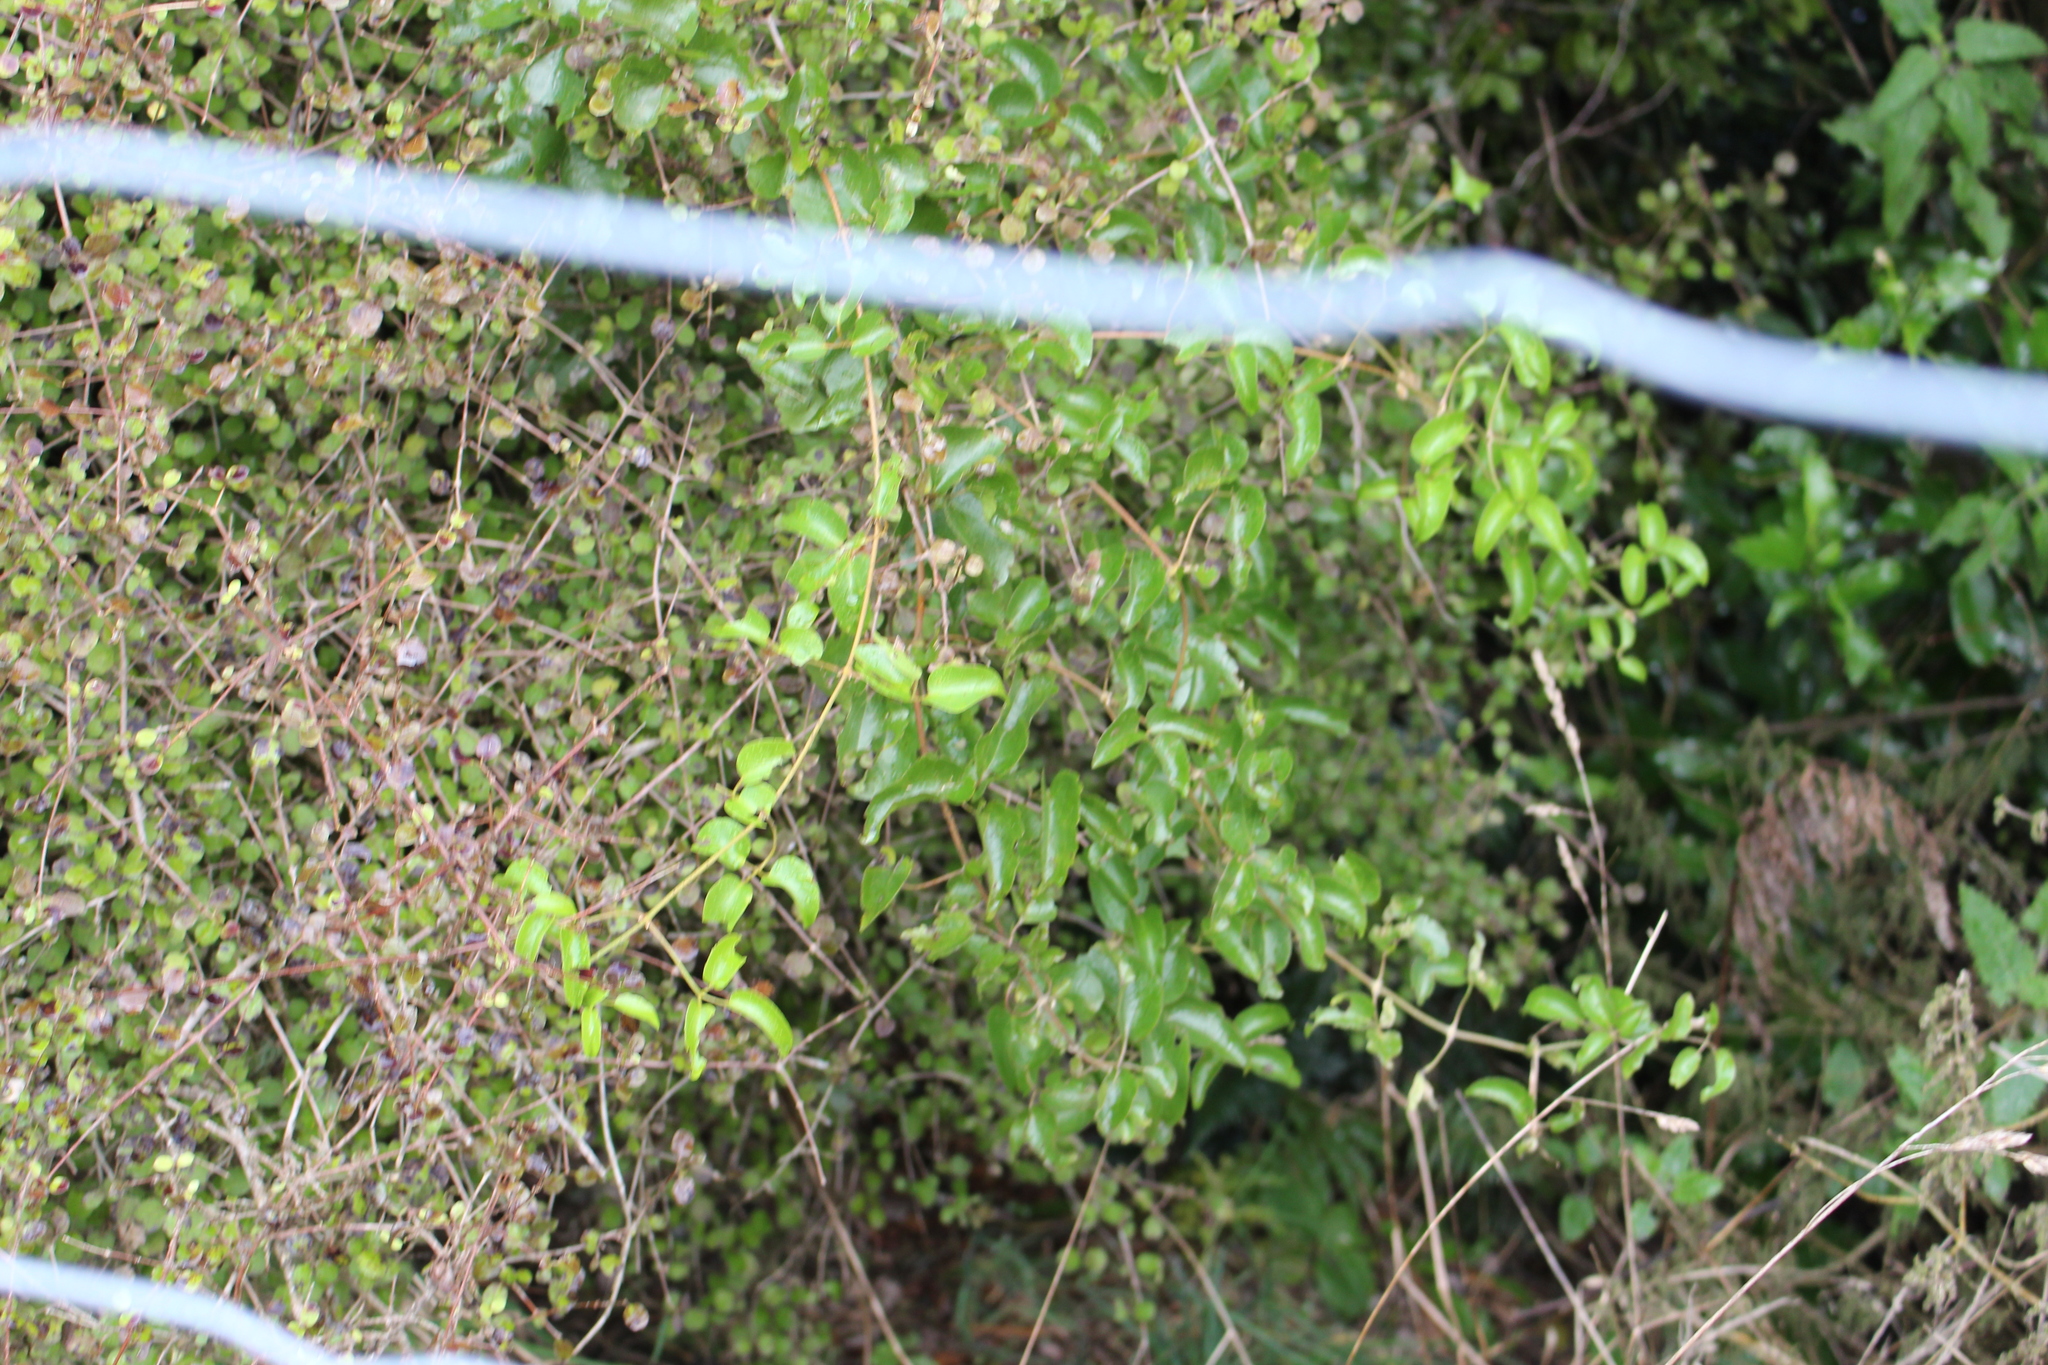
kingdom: Plantae
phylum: Tracheophyta
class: Magnoliopsida
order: Ranunculales
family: Ranunculaceae
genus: Clematis
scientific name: Clematis foetida
